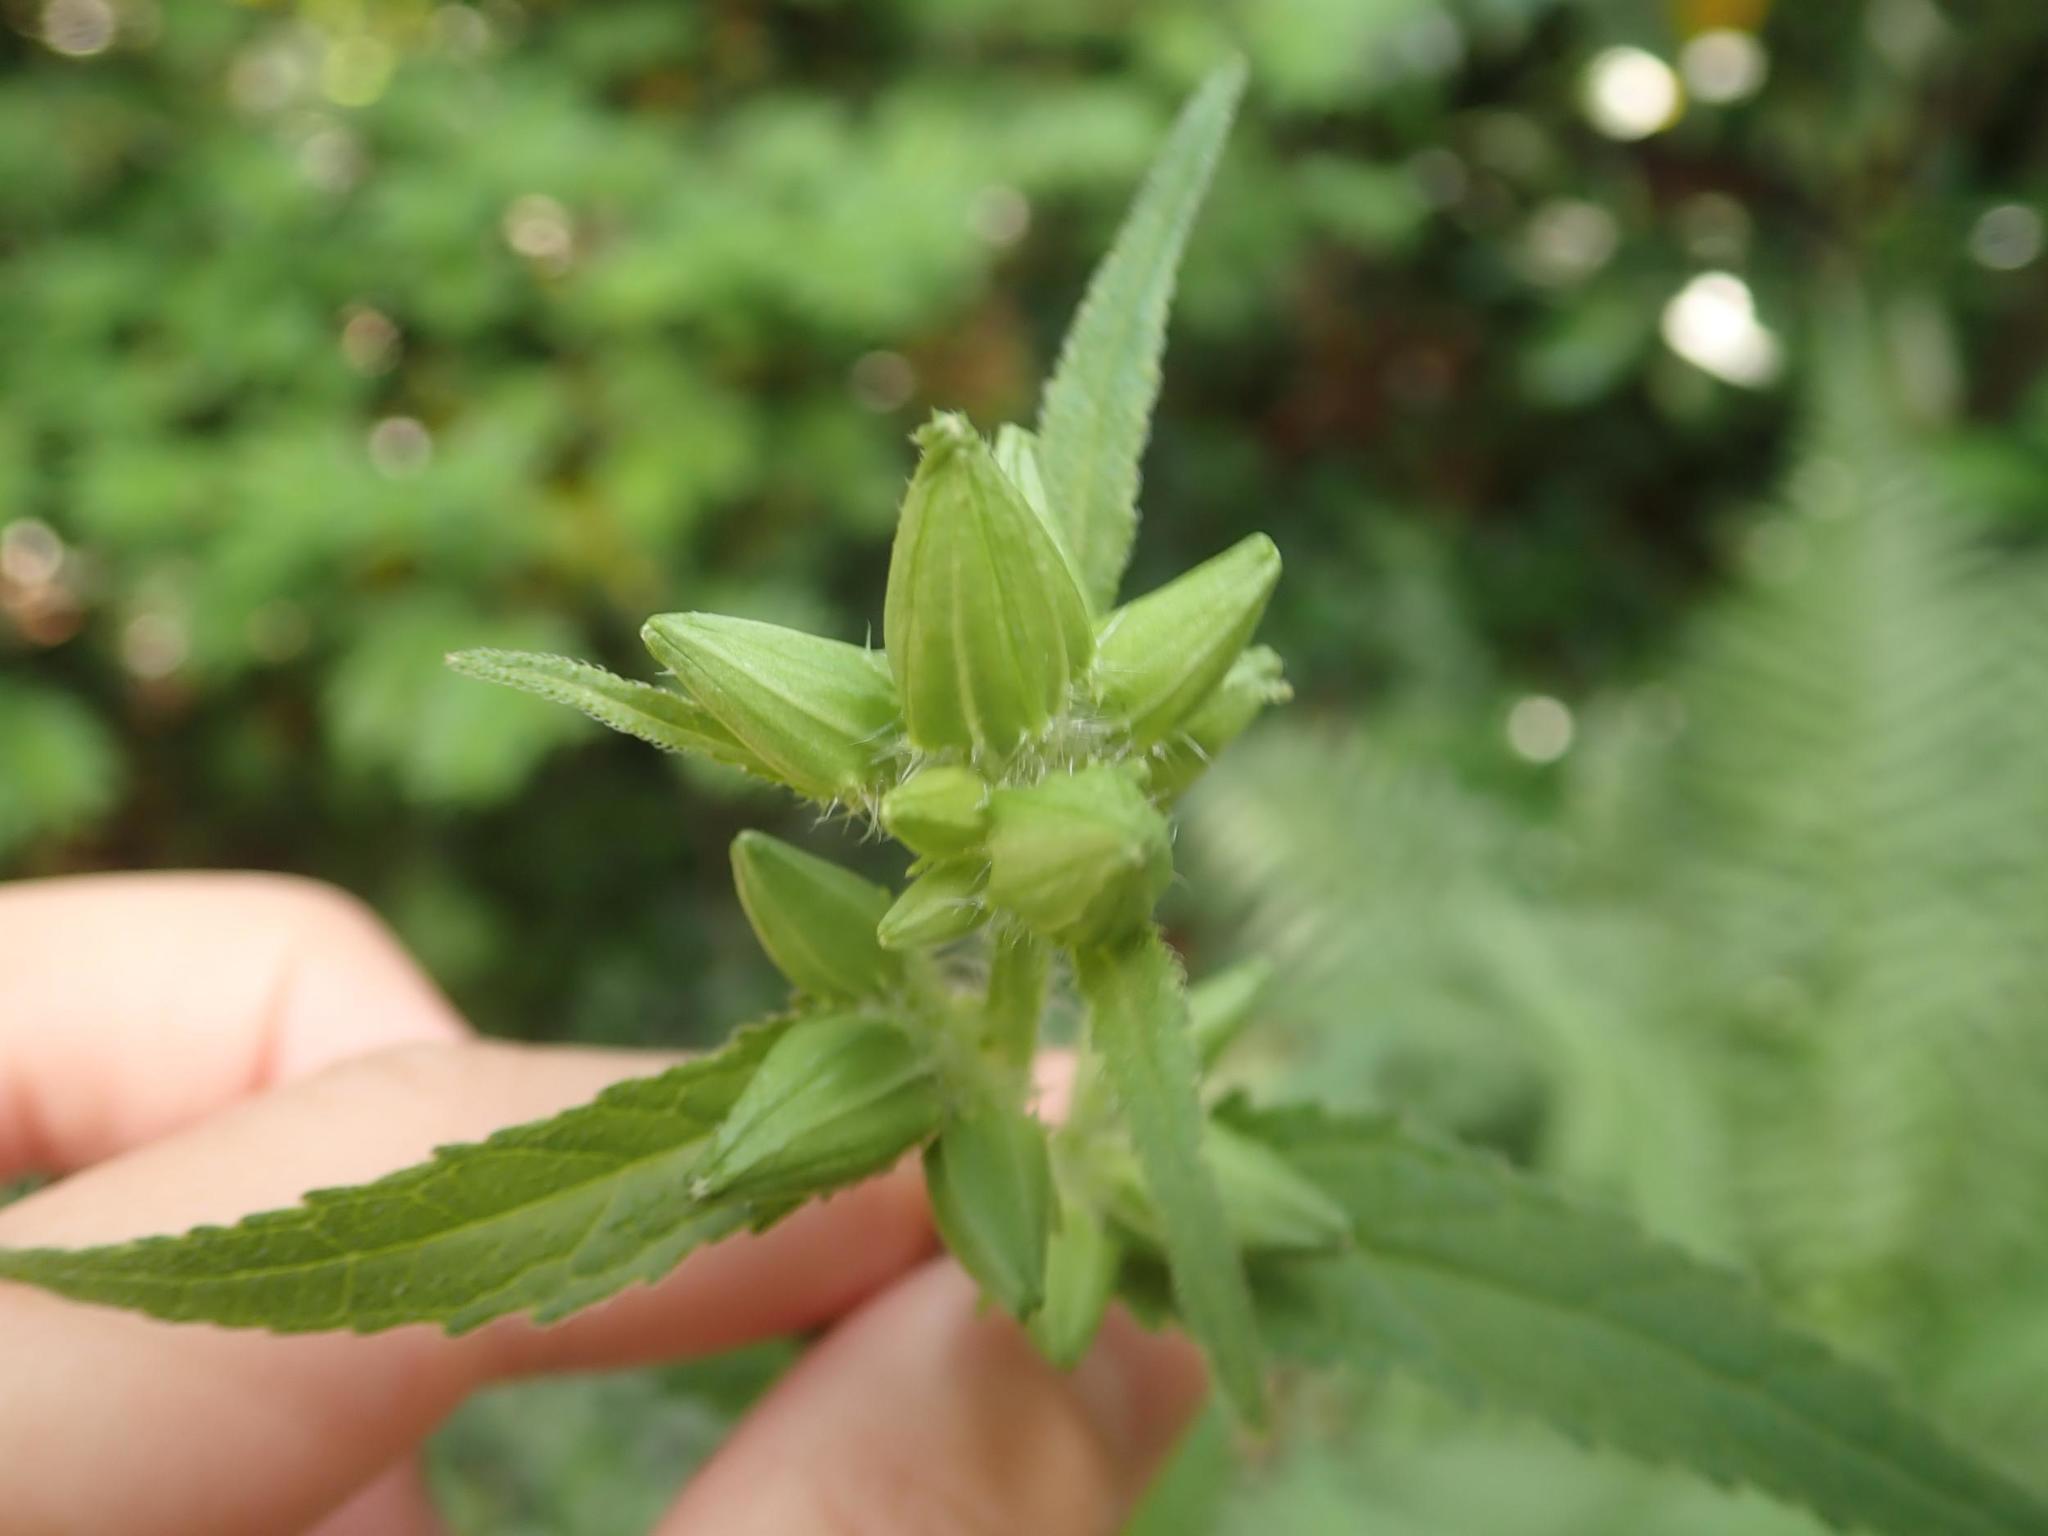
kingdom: Plantae
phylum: Tracheophyta
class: Magnoliopsida
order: Asterales
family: Campanulaceae
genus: Campanula
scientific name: Campanula trachelium
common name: Nettle-leaved bellflower
